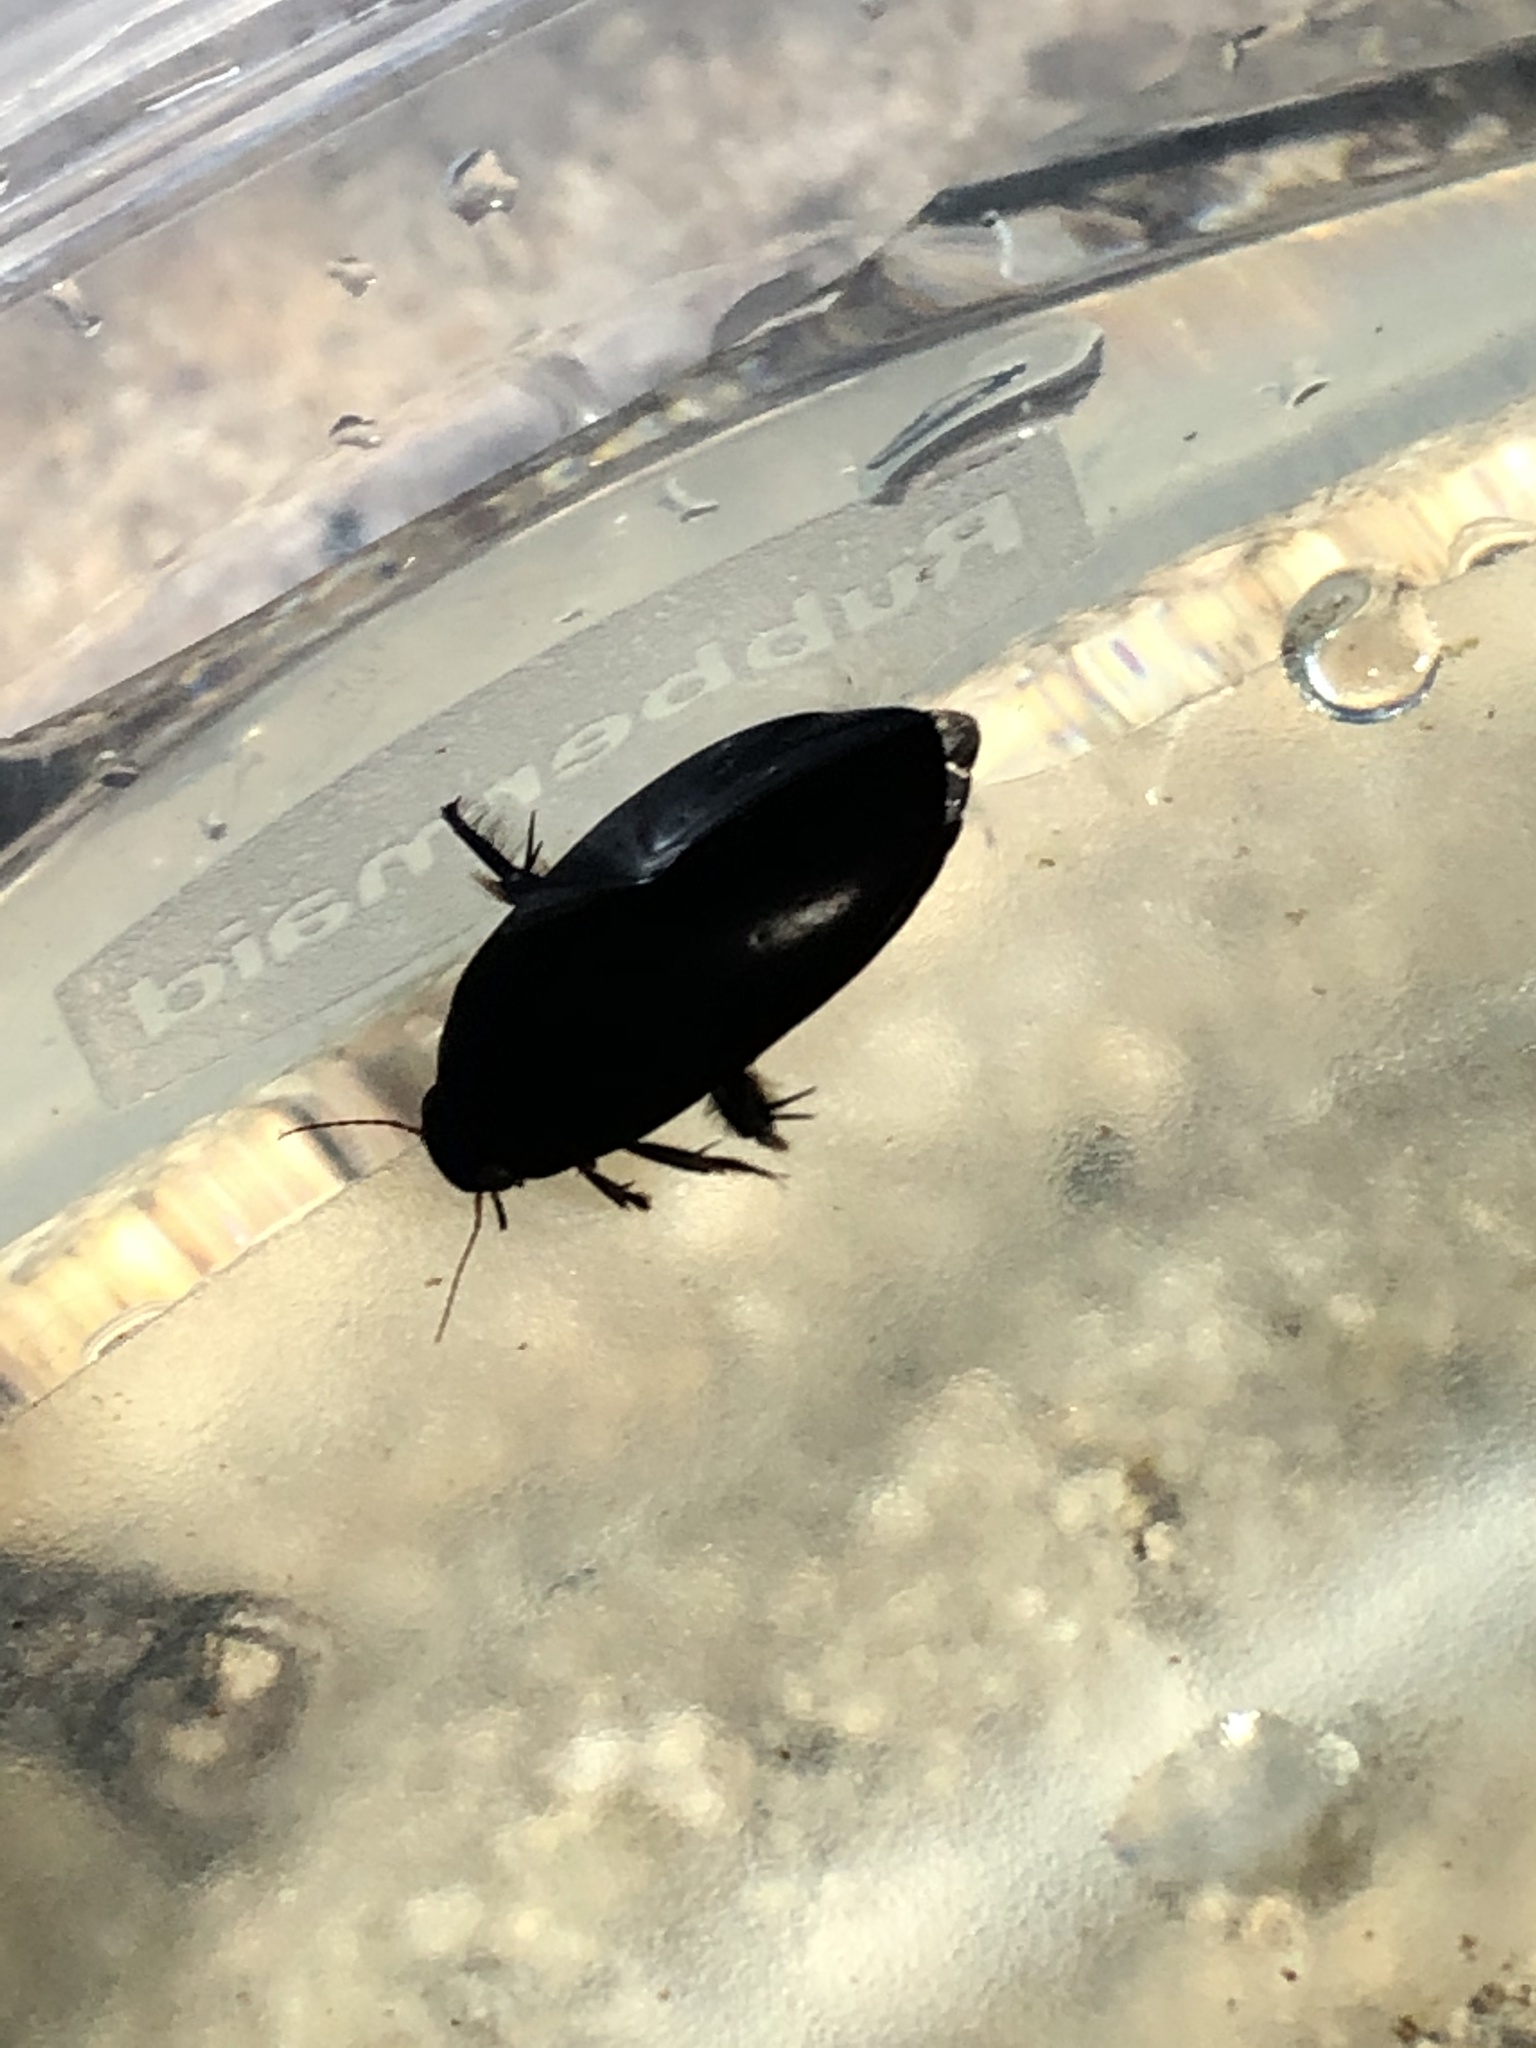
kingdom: Animalia
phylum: Arthropoda
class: Insecta
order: Coleoptera
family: Dytiscidae
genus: Rhantus
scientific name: Rhantus atricolor
